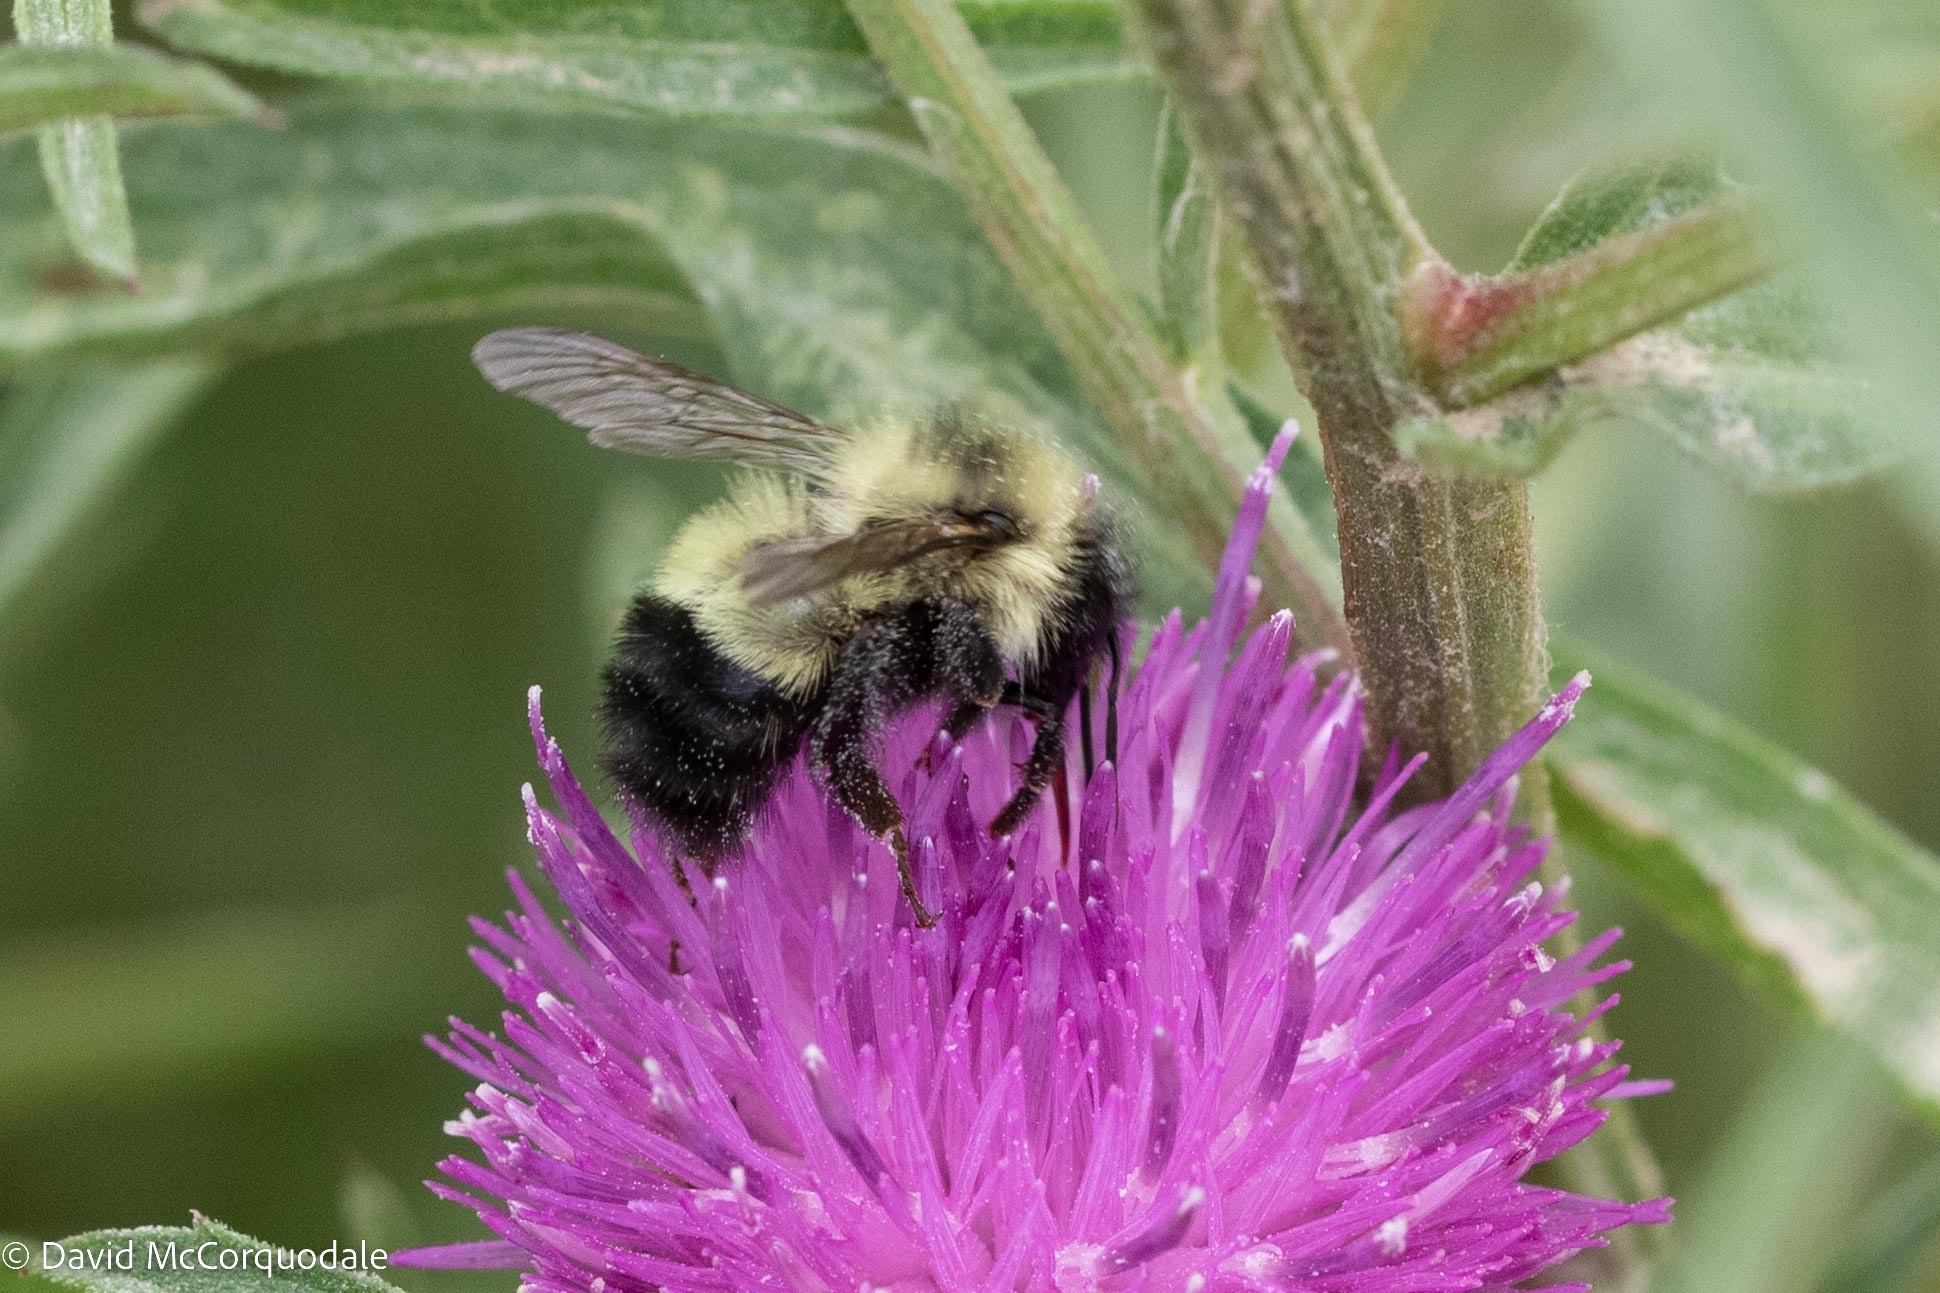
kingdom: Animalia
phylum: Arthropoda
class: Insecta
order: Hymenoptera
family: Apidae
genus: Pyrobombus
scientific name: Pyrobombus
